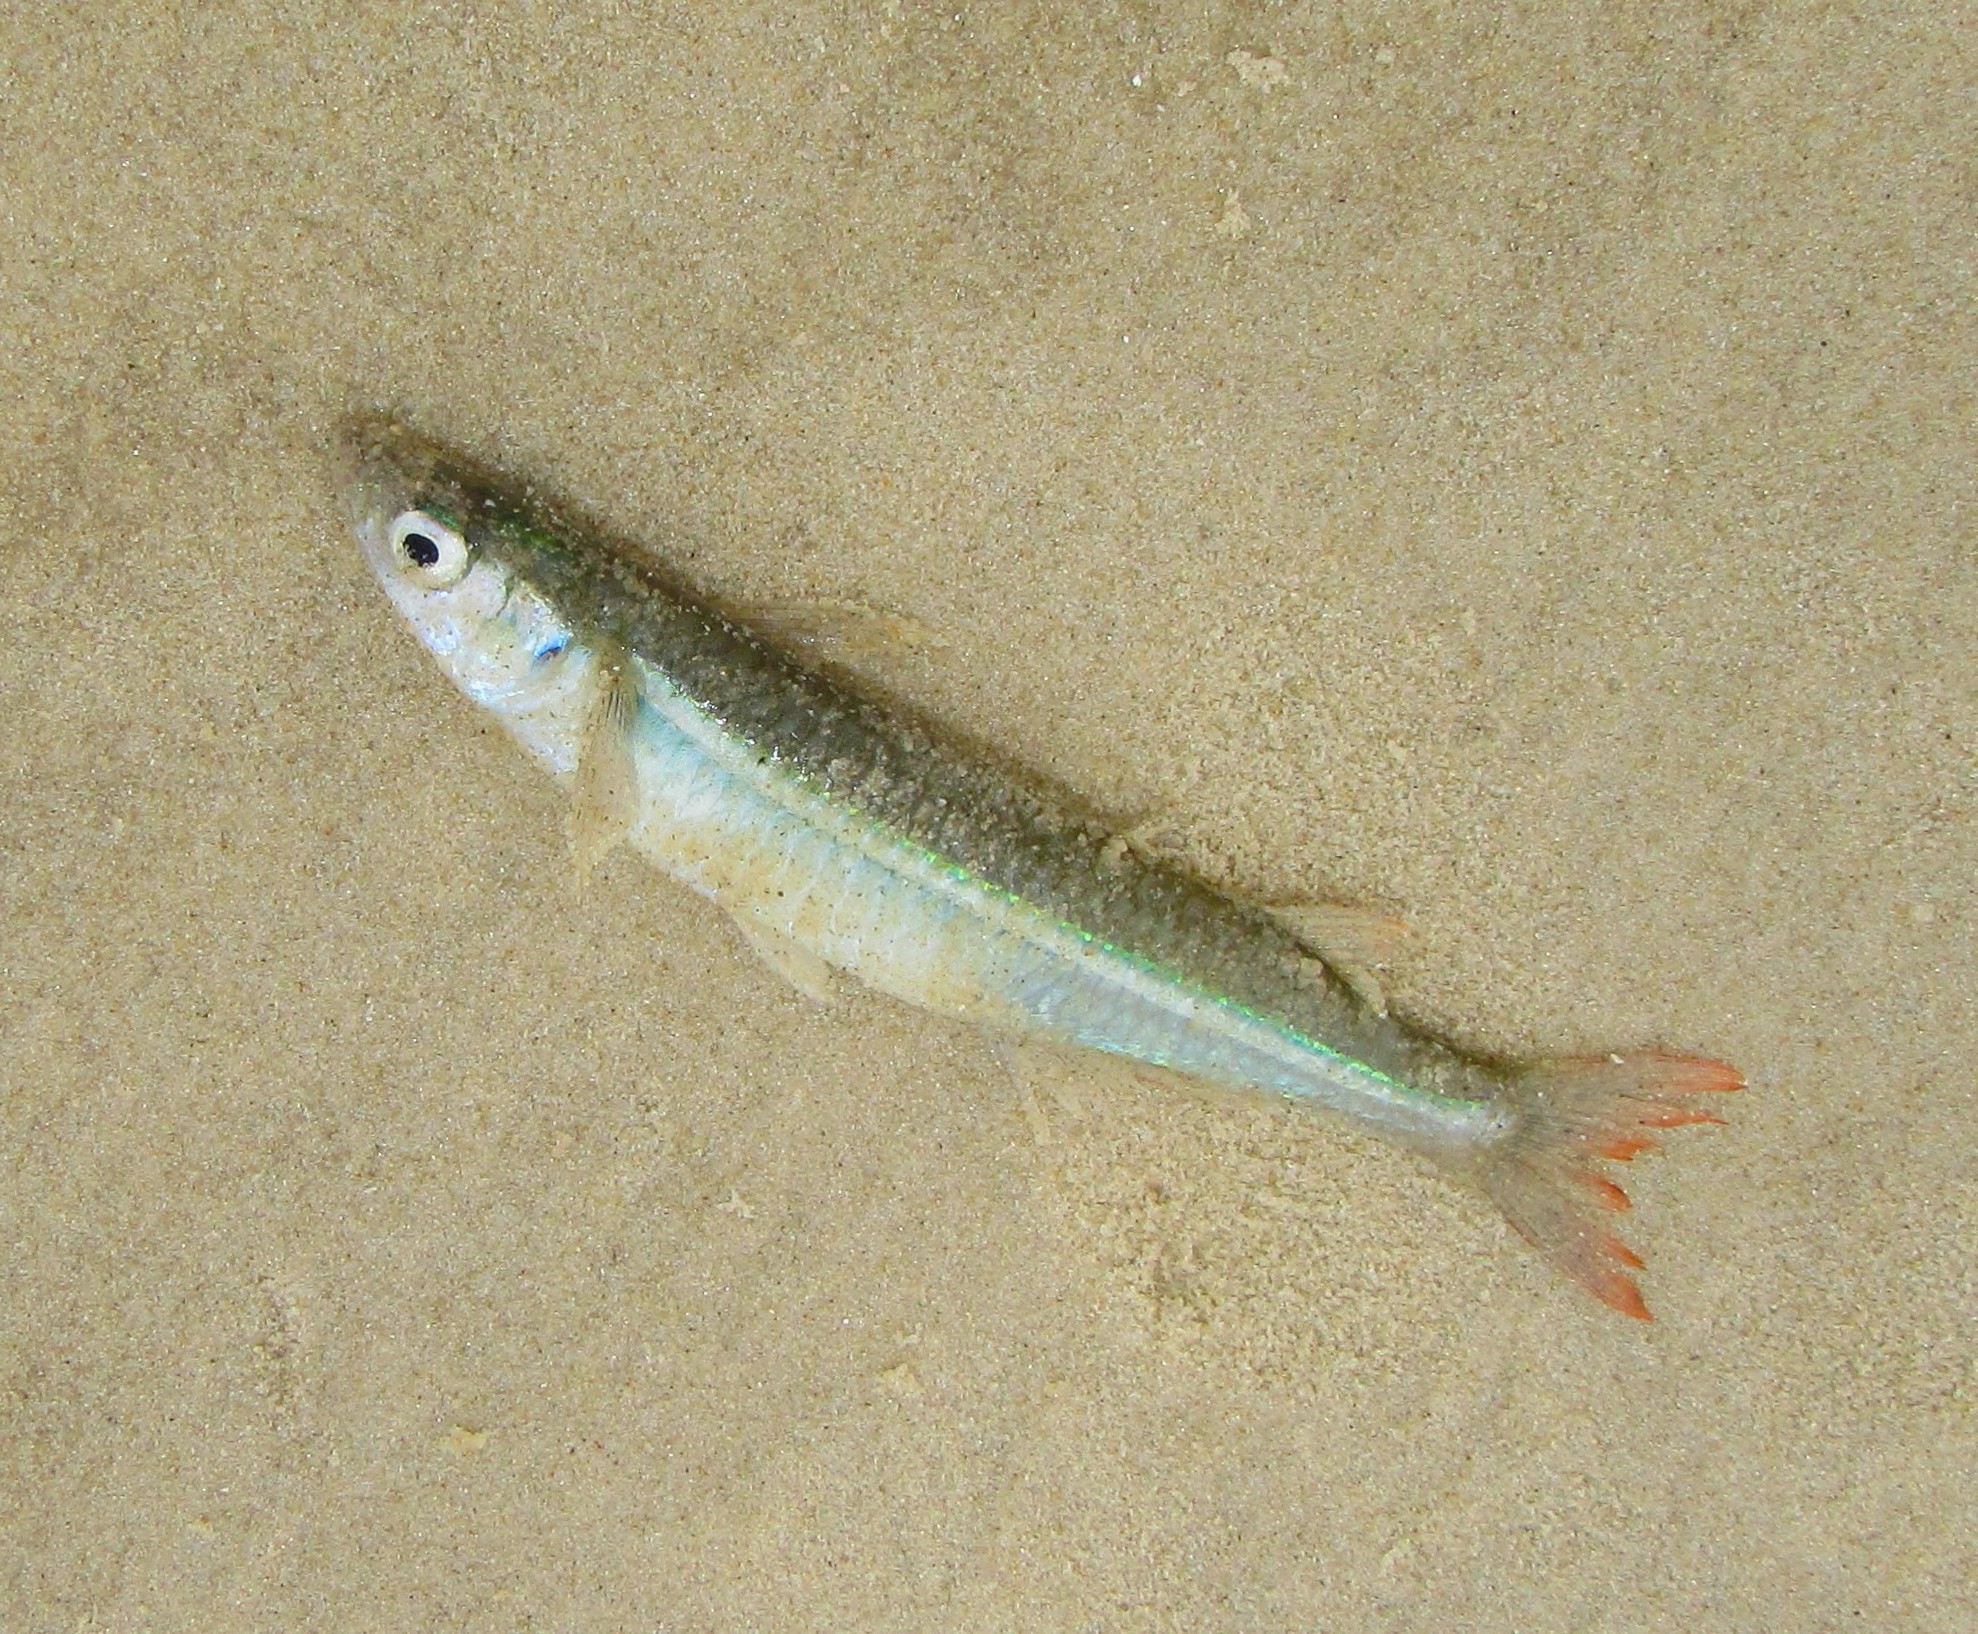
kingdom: Animalia
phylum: Chordata
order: Atheriniformes
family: Atherinopsidae
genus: Atherinella
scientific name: Atherinella brasiliensis
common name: Brazilian silversides
